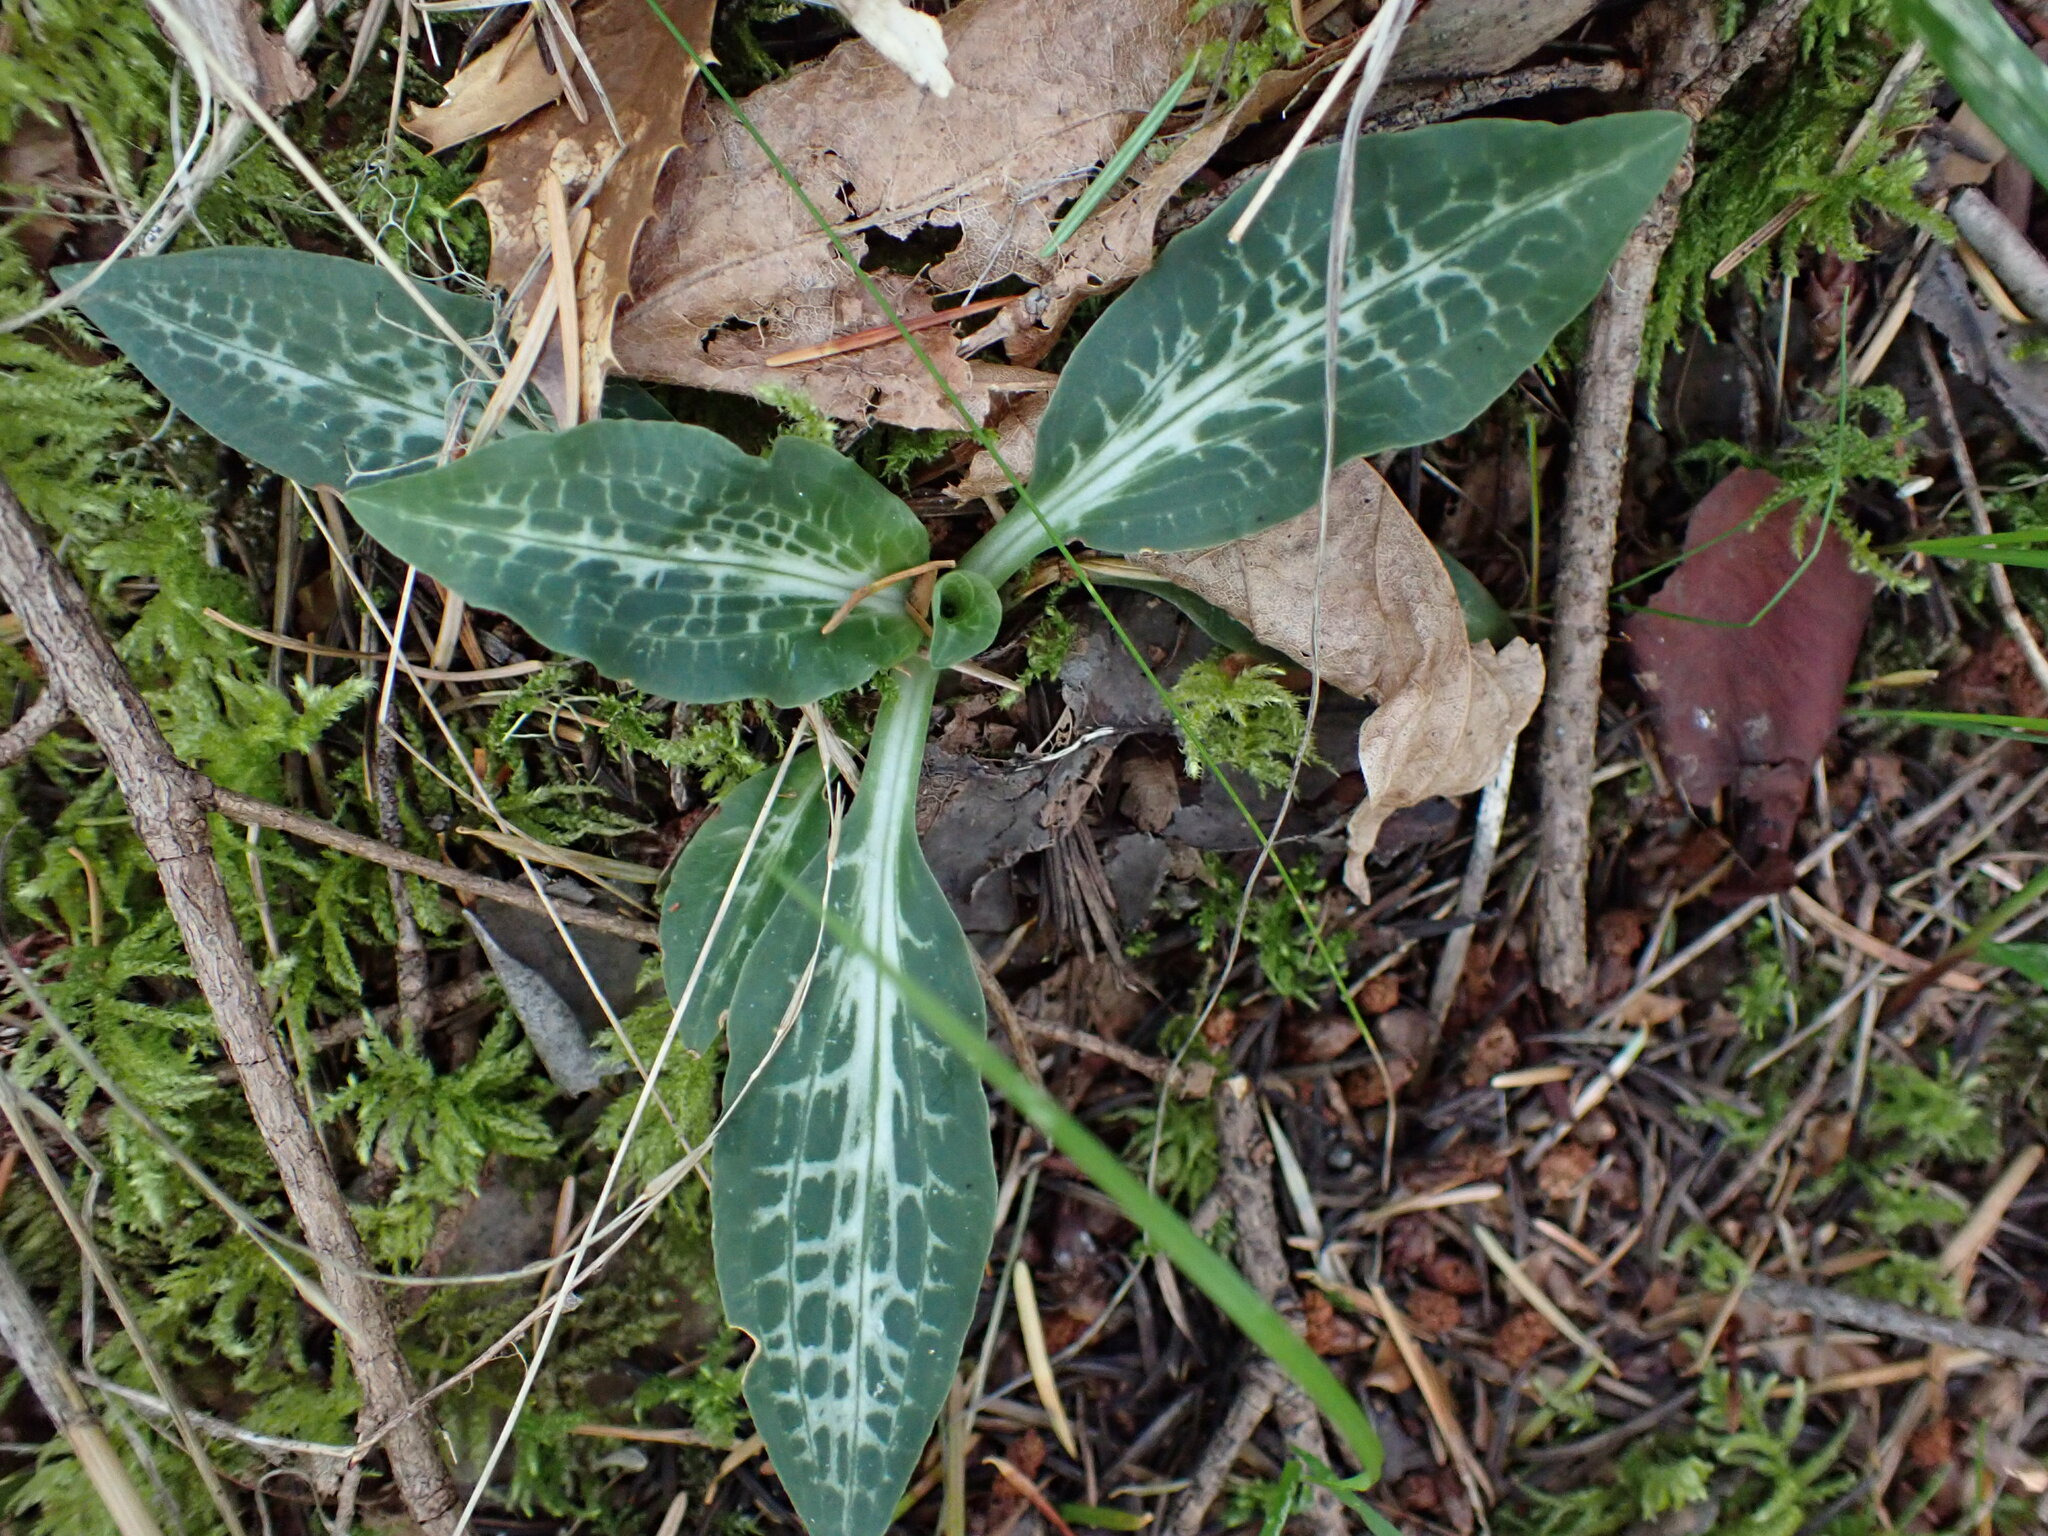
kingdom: Plantae
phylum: Tracheophyta
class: Liliopsida
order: Asparagales
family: Orchidaceae
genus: Goodyera
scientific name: Goodyera oblongifolia
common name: Giant rattlesnake-plantain
